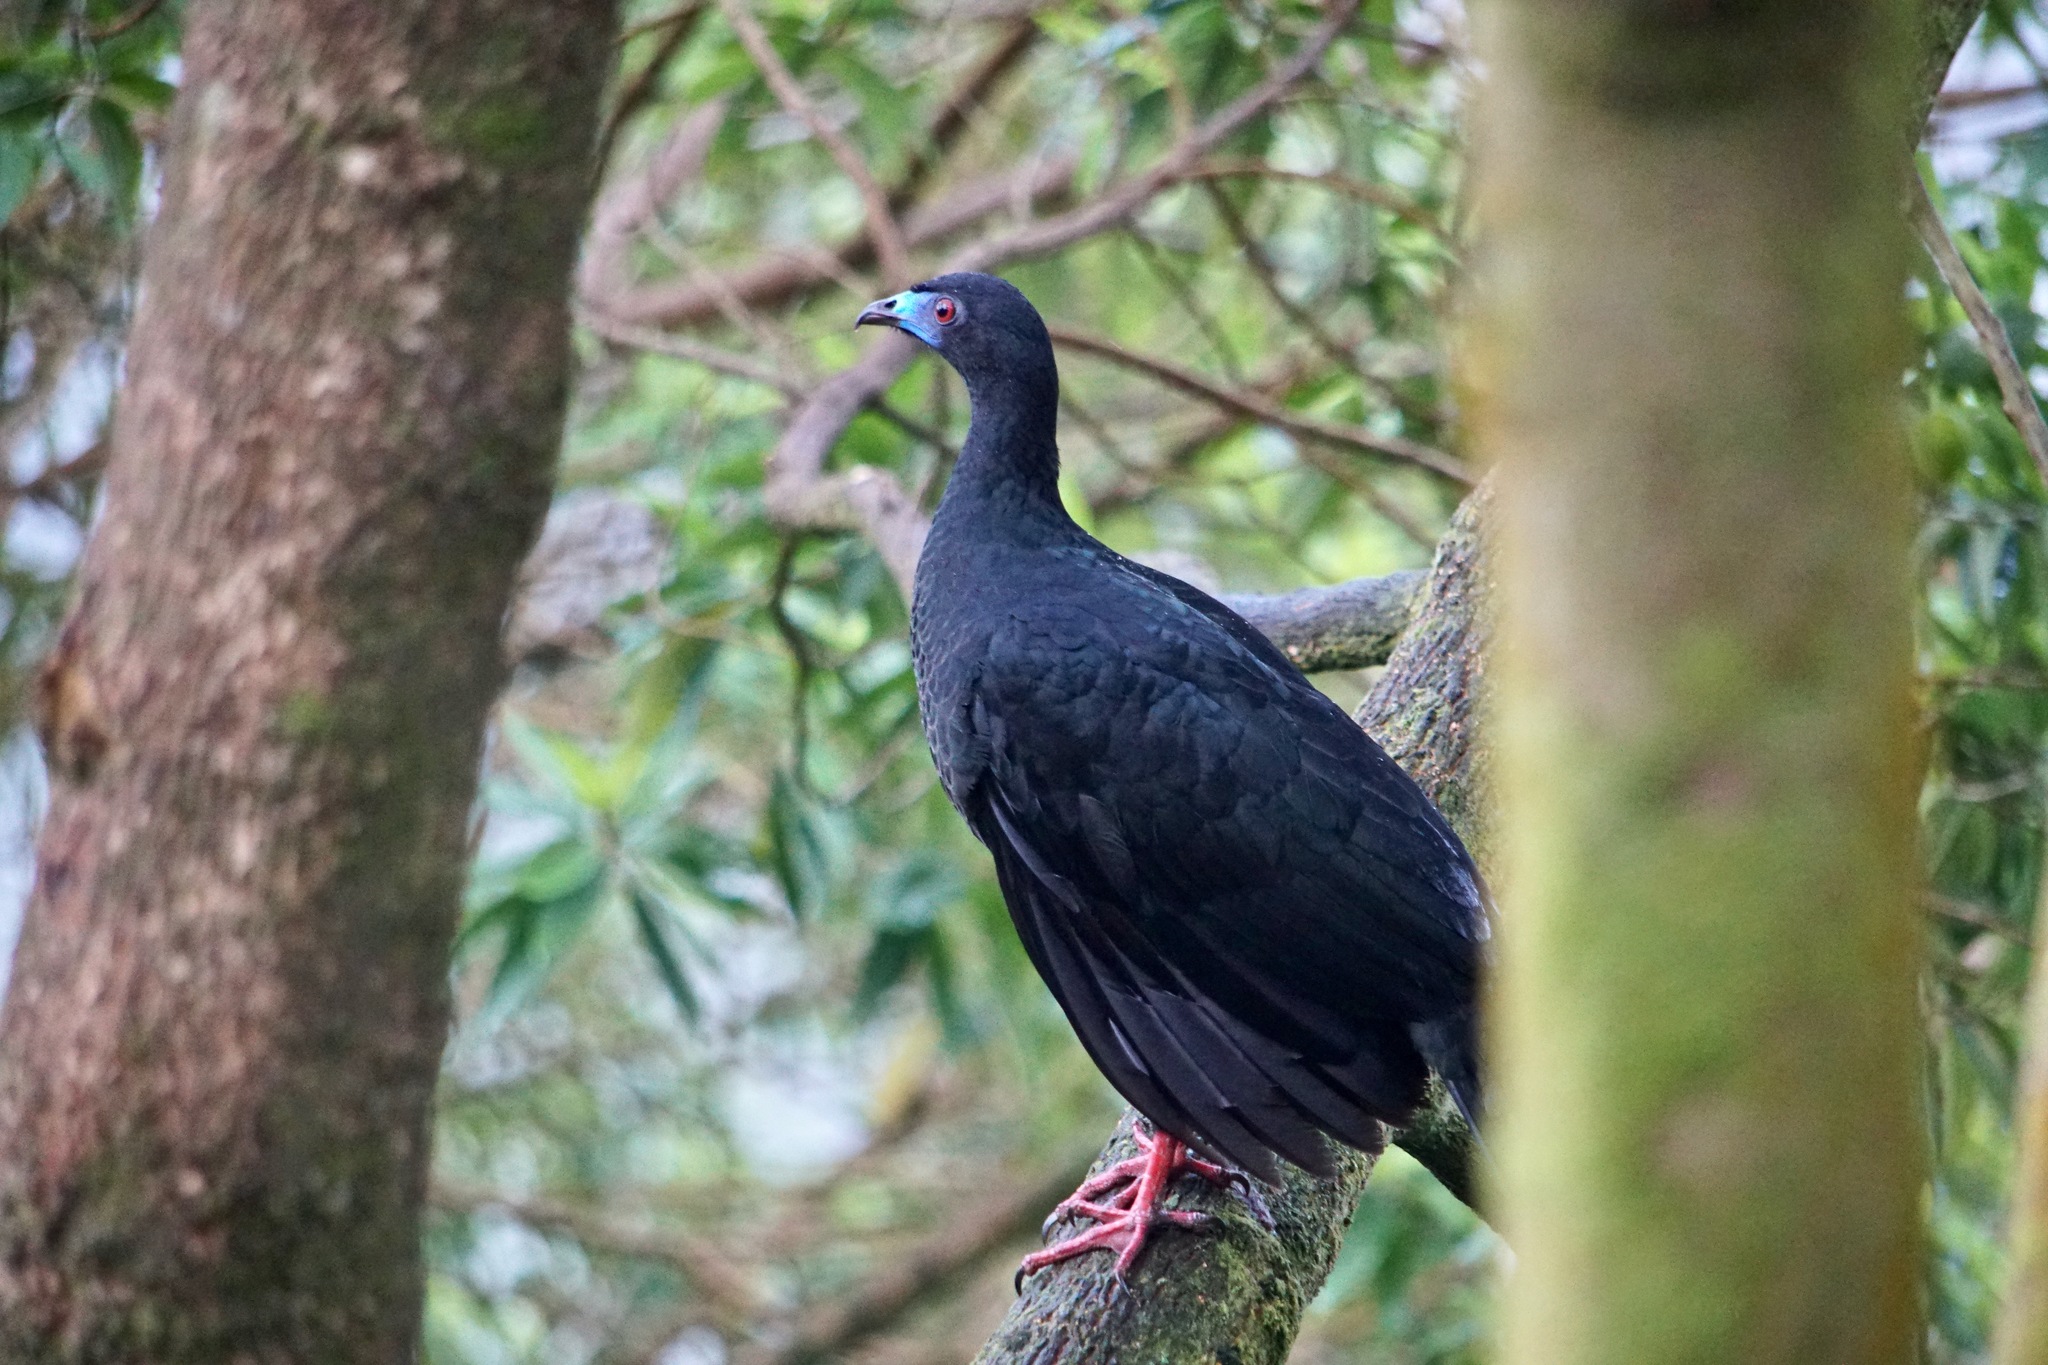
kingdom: Animalia
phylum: Chordata
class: Aves
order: Galliformes
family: Cracidae
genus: Chamaepetes
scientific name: Chamaepetes unicolor
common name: Black guan
